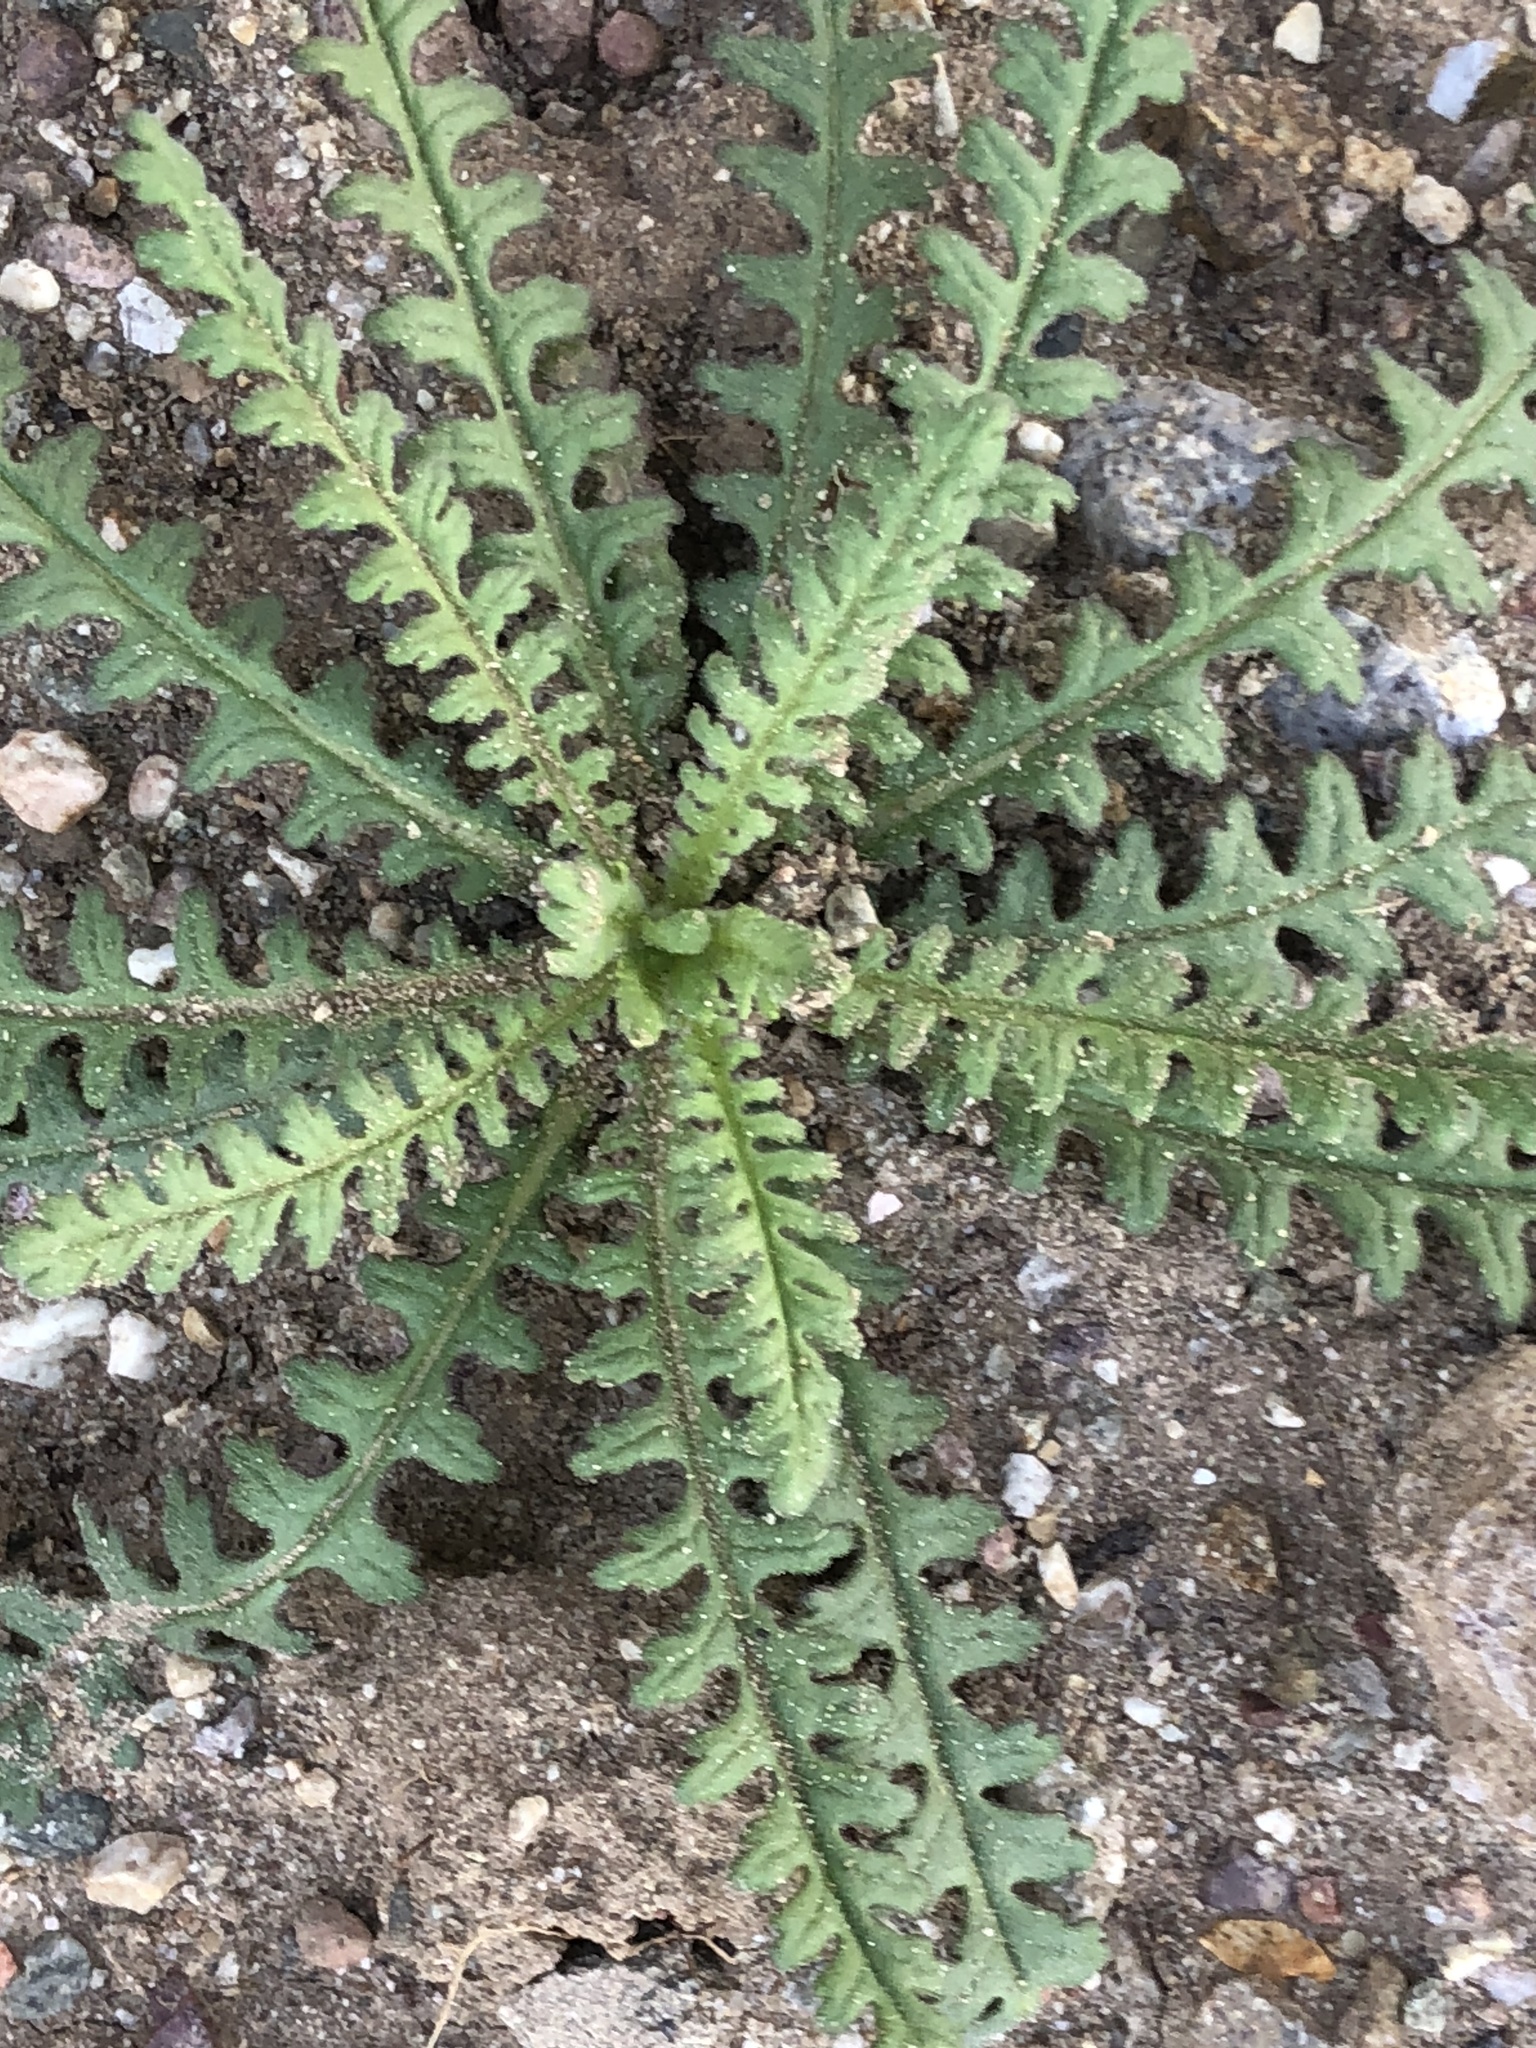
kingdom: Plantae
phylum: Tracheophyta
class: Magnoliopsida
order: Boraginales
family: Hydrophyllaceae
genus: Emmenanthe
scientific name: Emmenanthe penduliflora
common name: Whispering-bells
